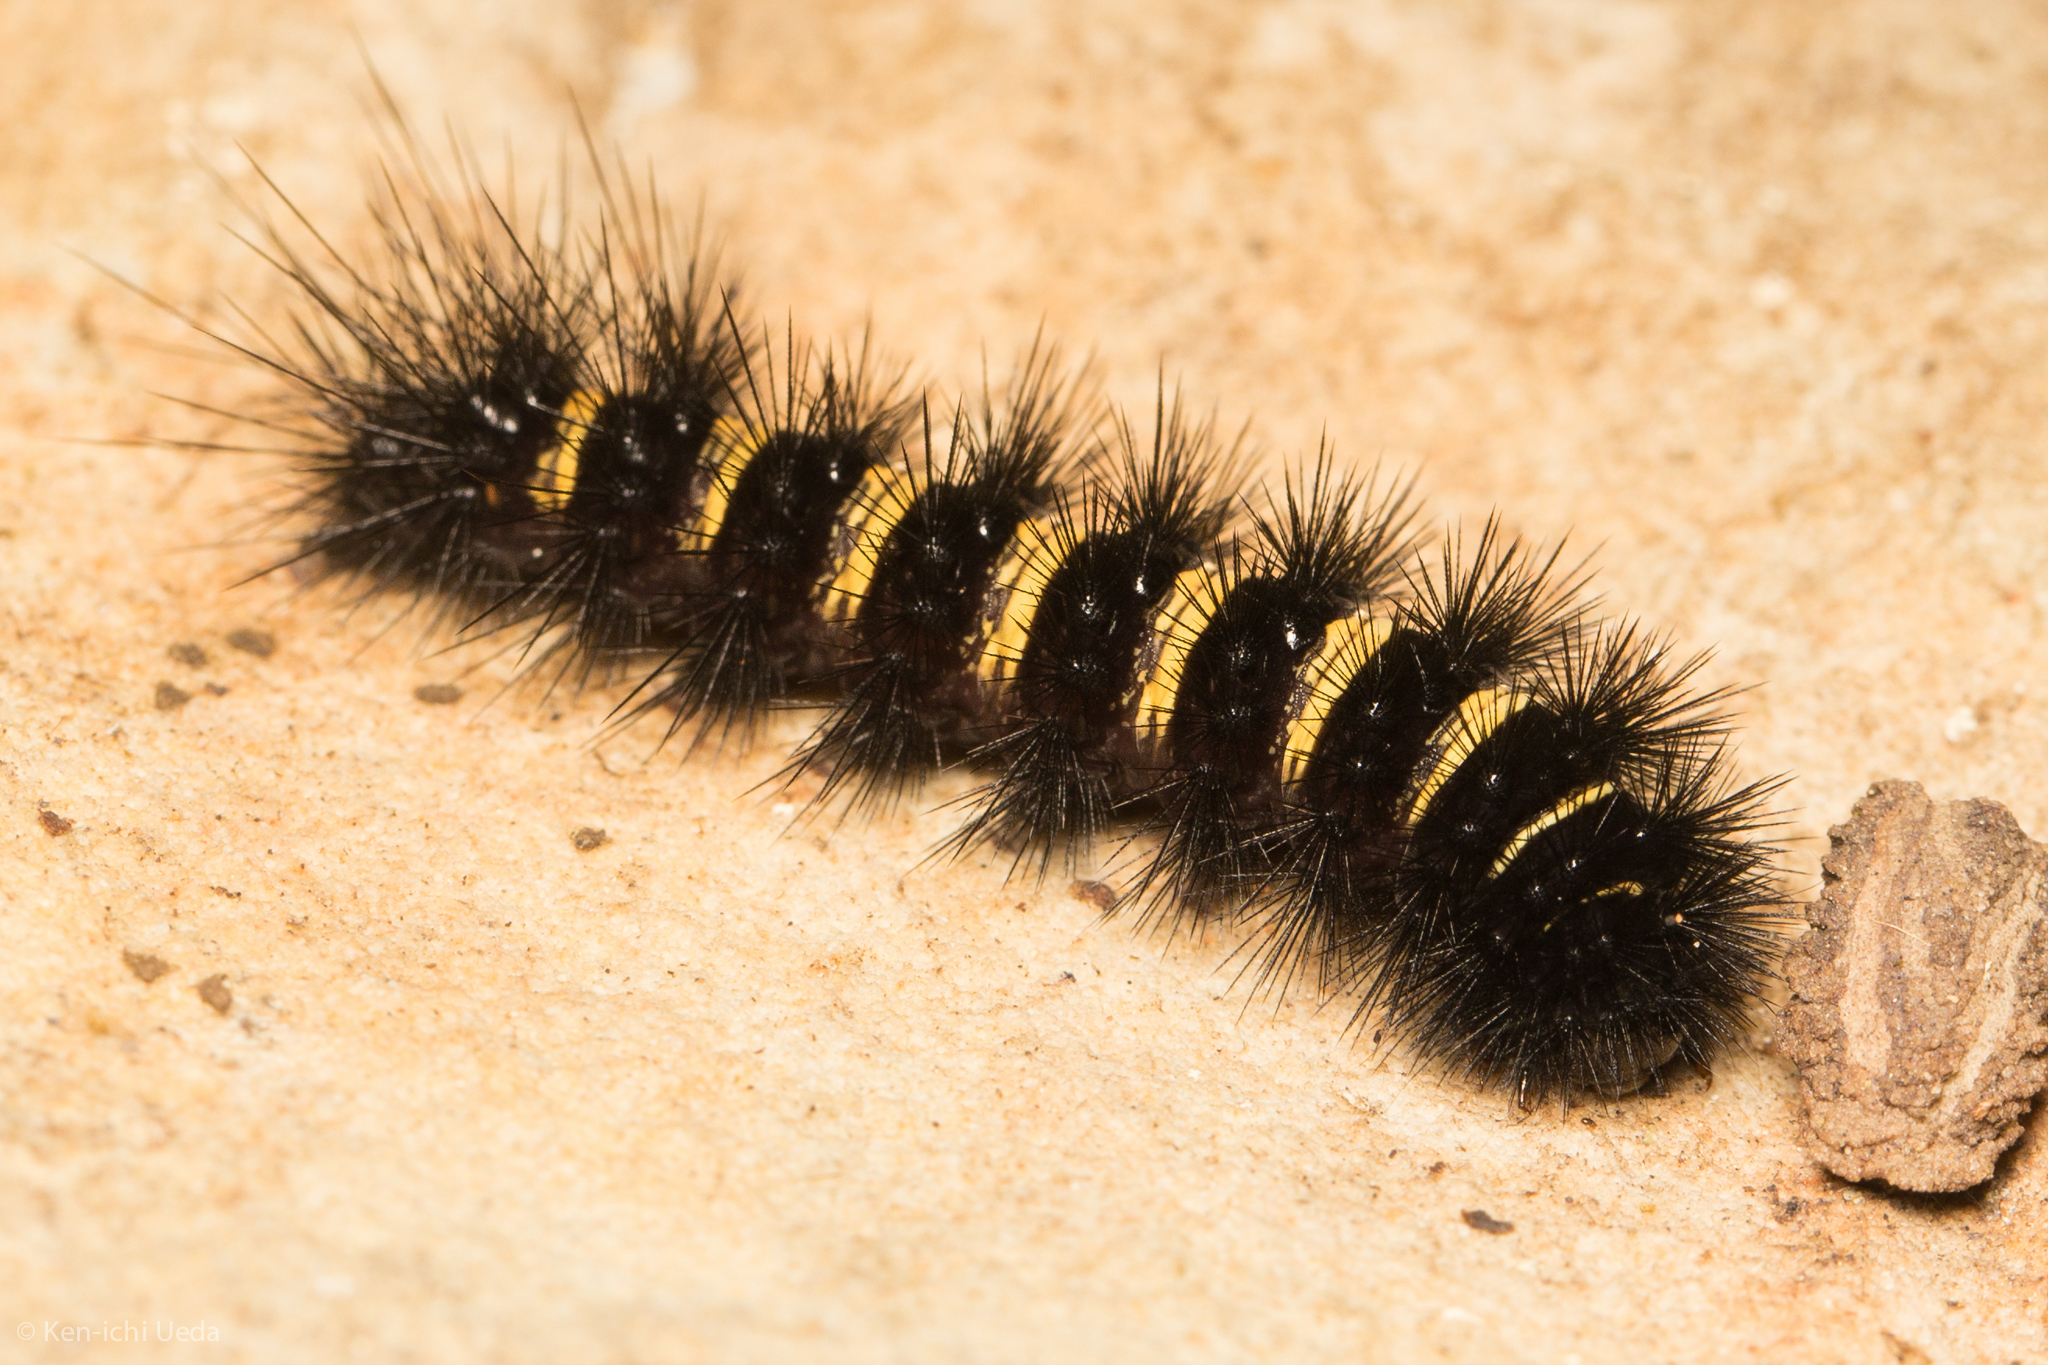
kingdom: Animalia
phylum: Arthropoda
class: Insecta
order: Lepidoptera
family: Erebidae
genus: Spilosoma
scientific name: Spilosoma congrua
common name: Agreeable tiger moth
